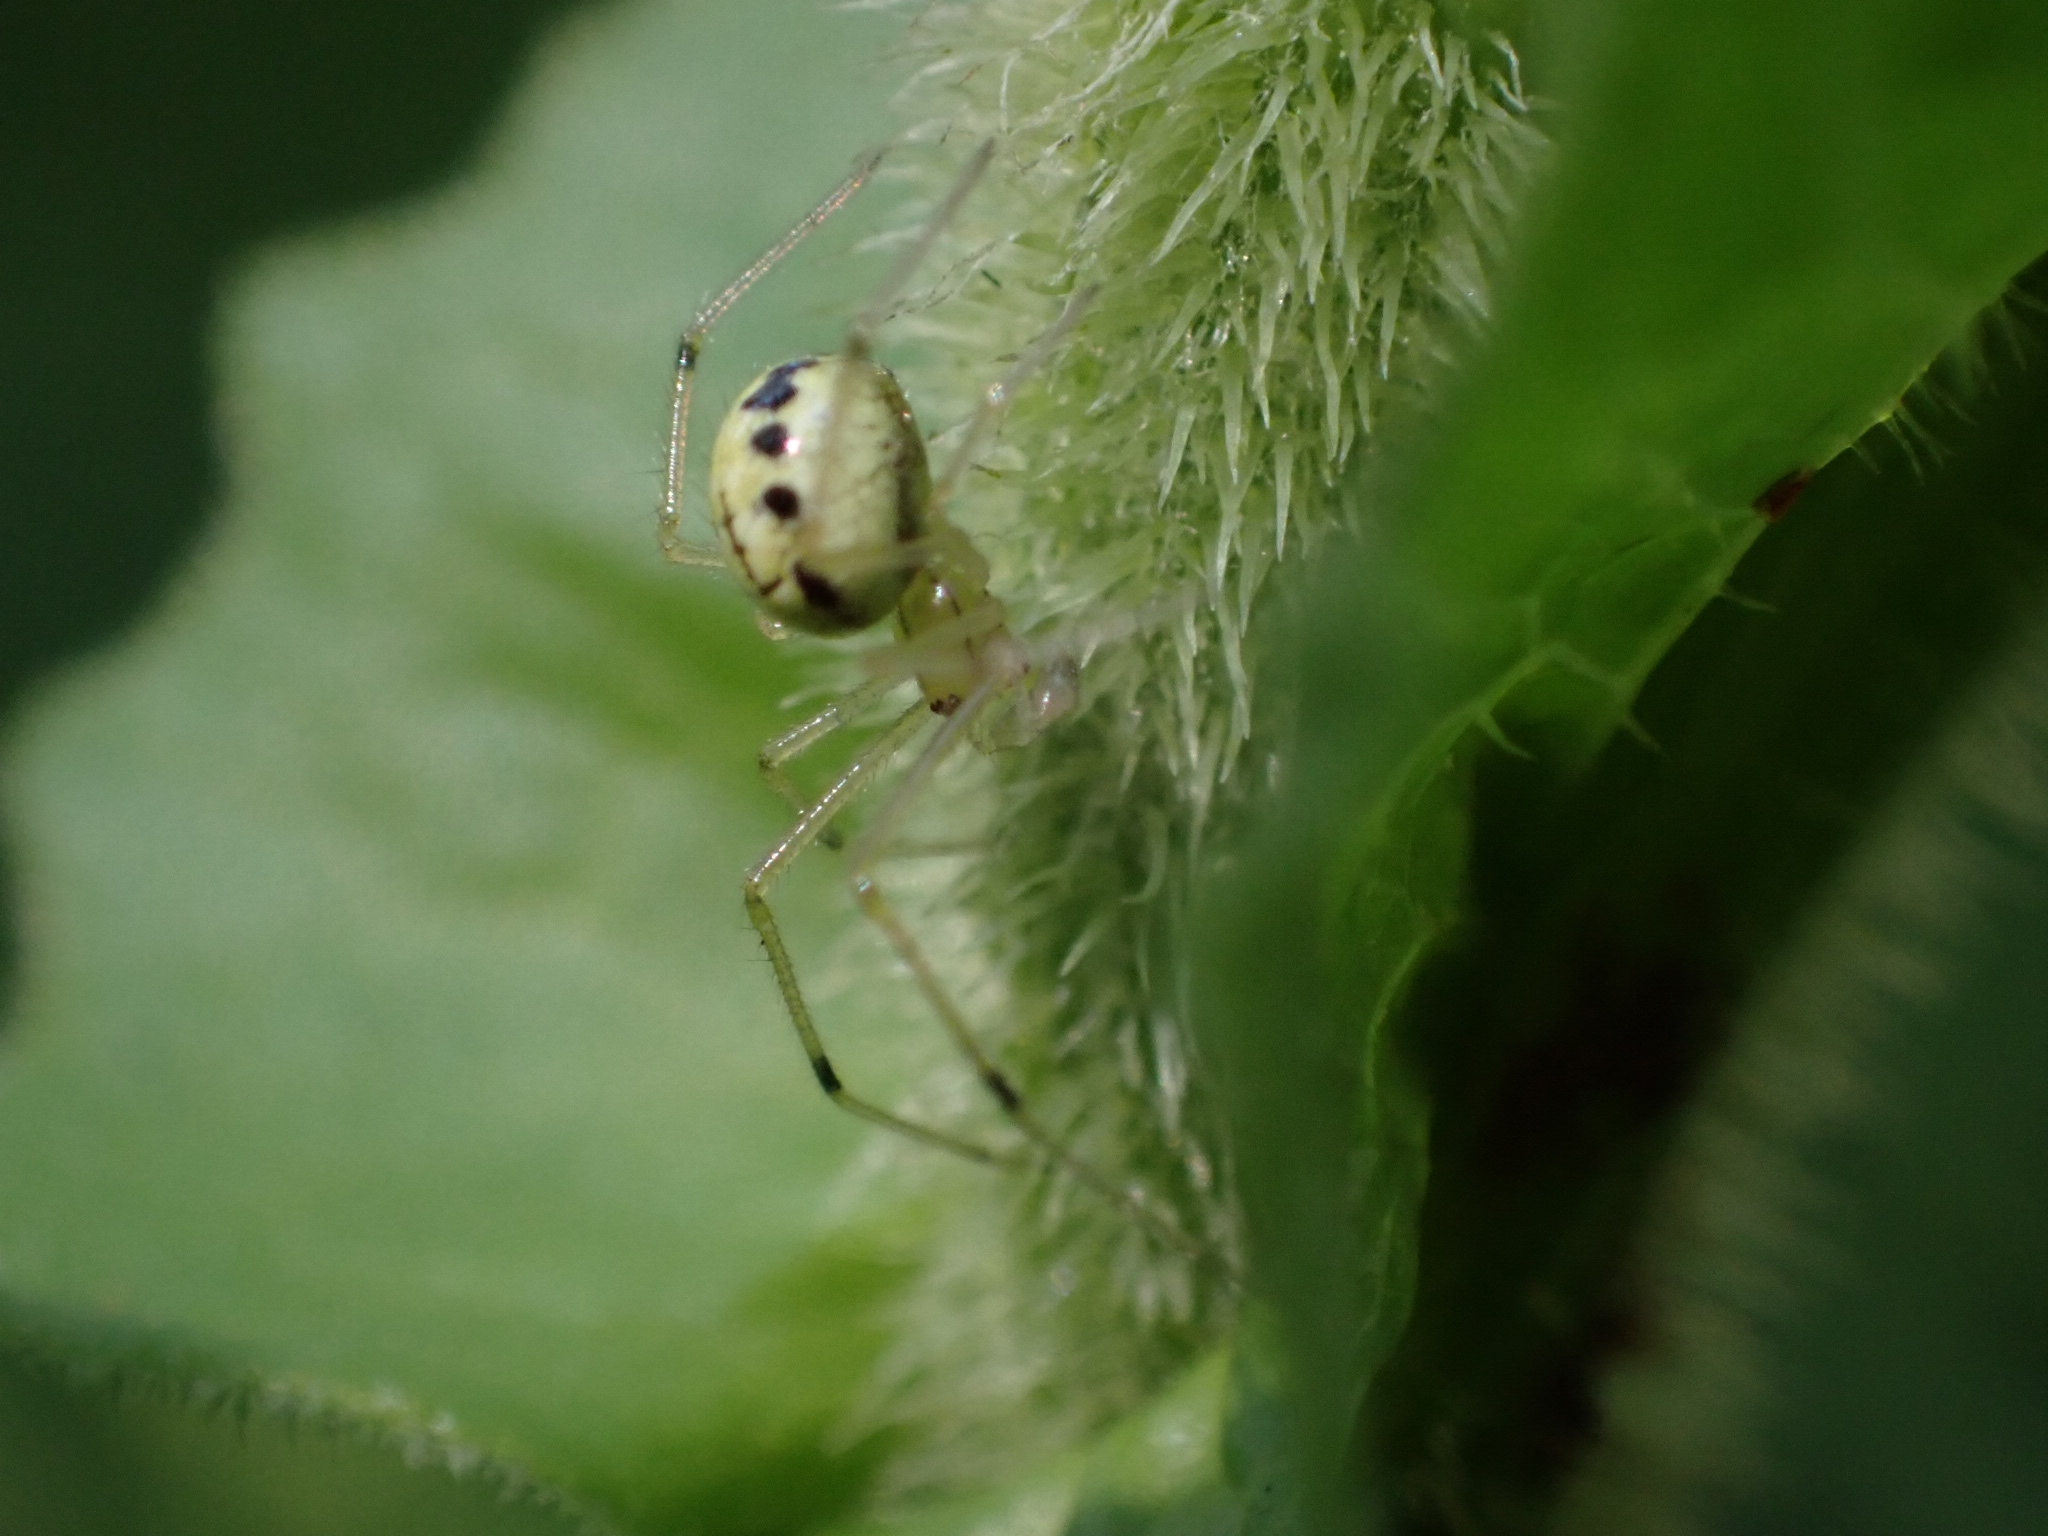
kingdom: Animalia
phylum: Arthropoda
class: Arachnida
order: Araneae
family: Theridiidae
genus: Enoplognatha
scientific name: Enoplognatha ovata
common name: Common candy-striped spider
